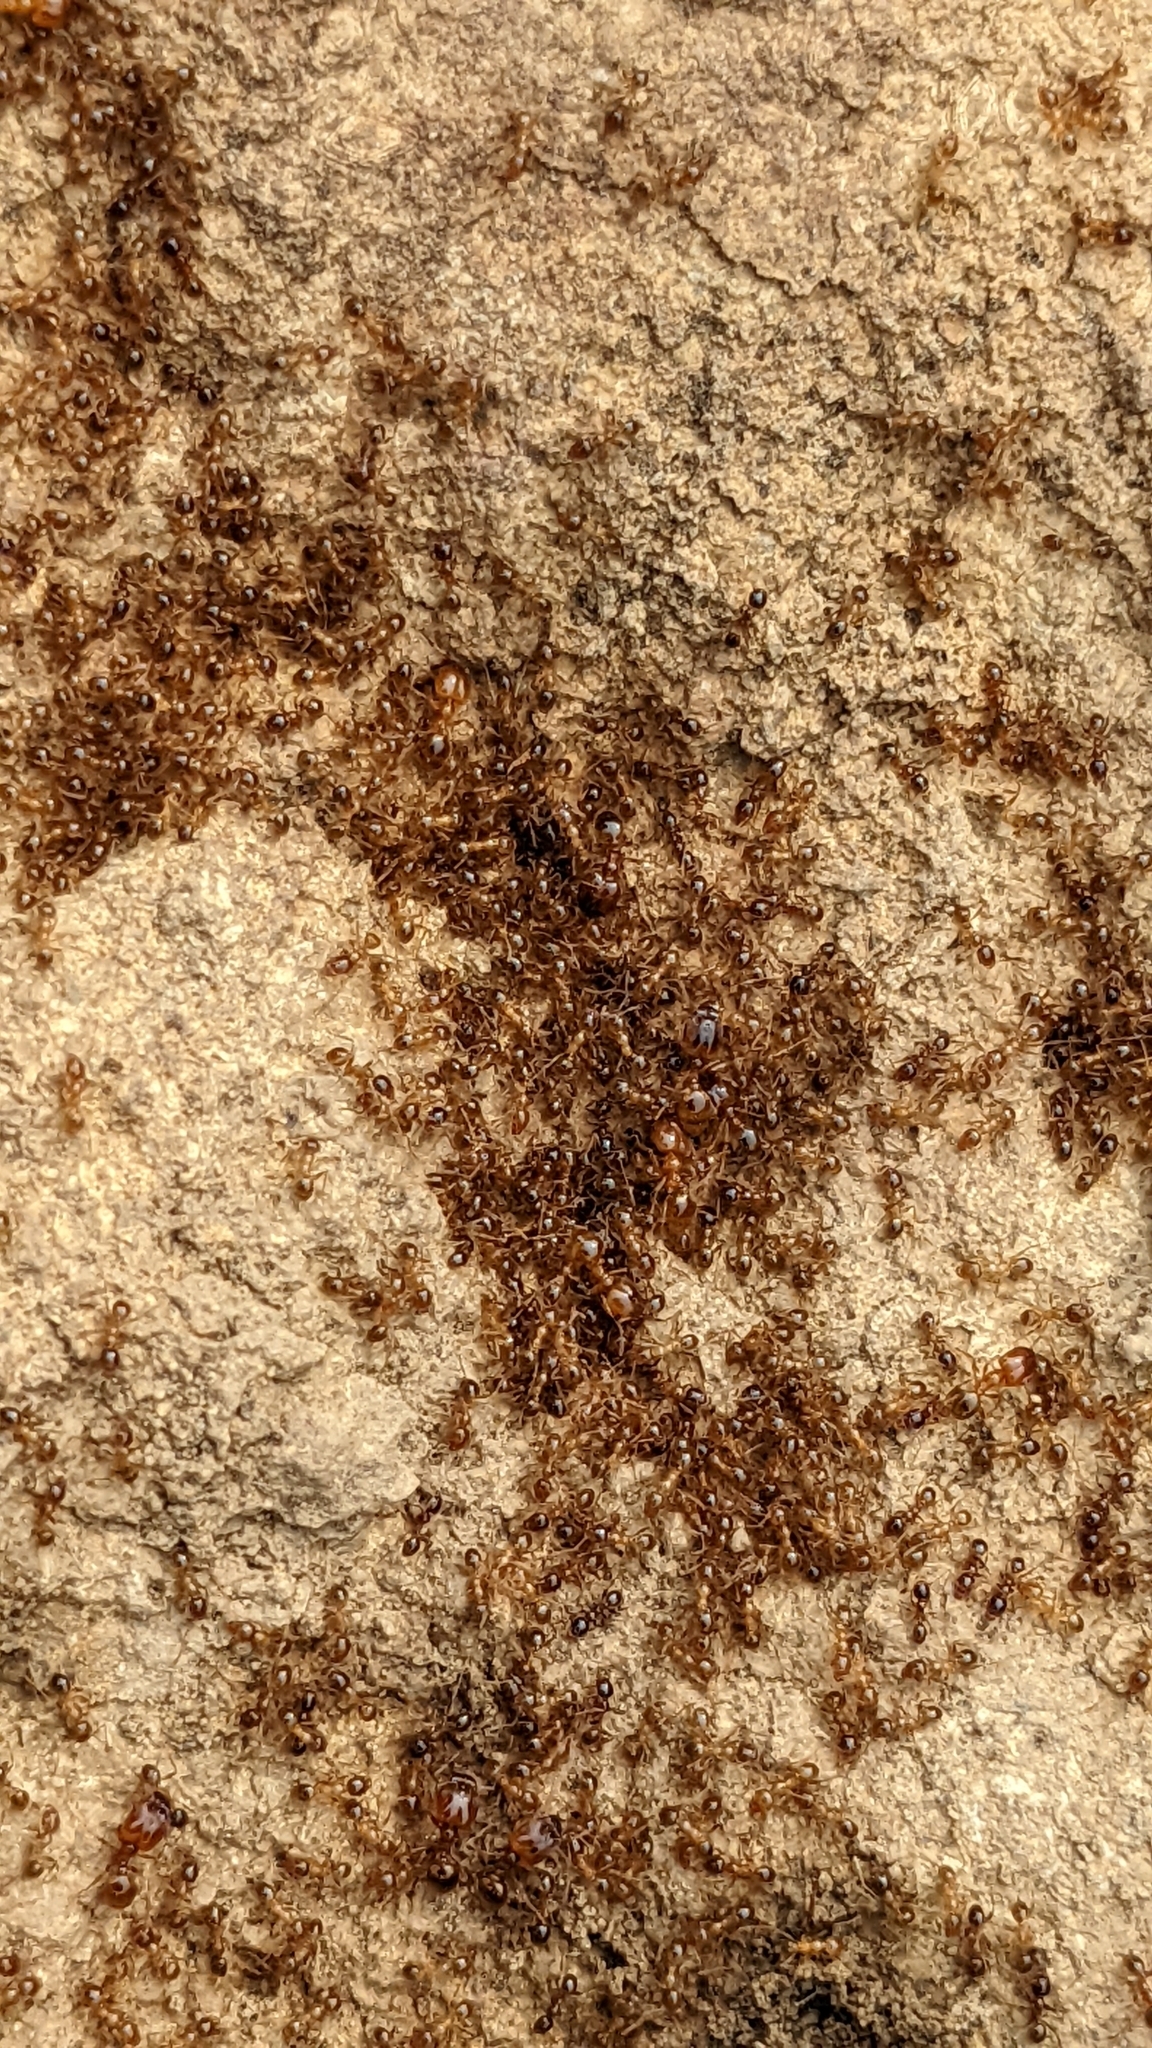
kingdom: Animalia
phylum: Arthropoda
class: Insecta
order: Hymenoptera
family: Formicidae
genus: Pheidole
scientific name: Pheidole pallidula
